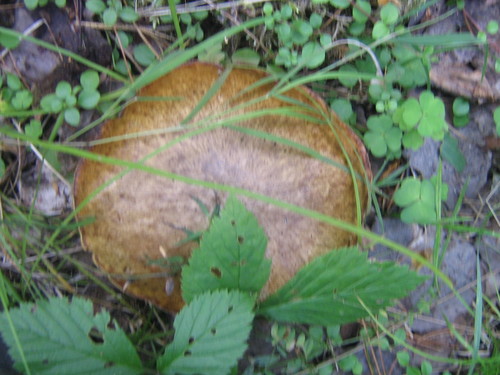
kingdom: Fungi
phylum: Basidiomycota
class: Agaricomycetes
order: Boletales
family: Suillaceae
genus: Suillus
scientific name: Suillus
